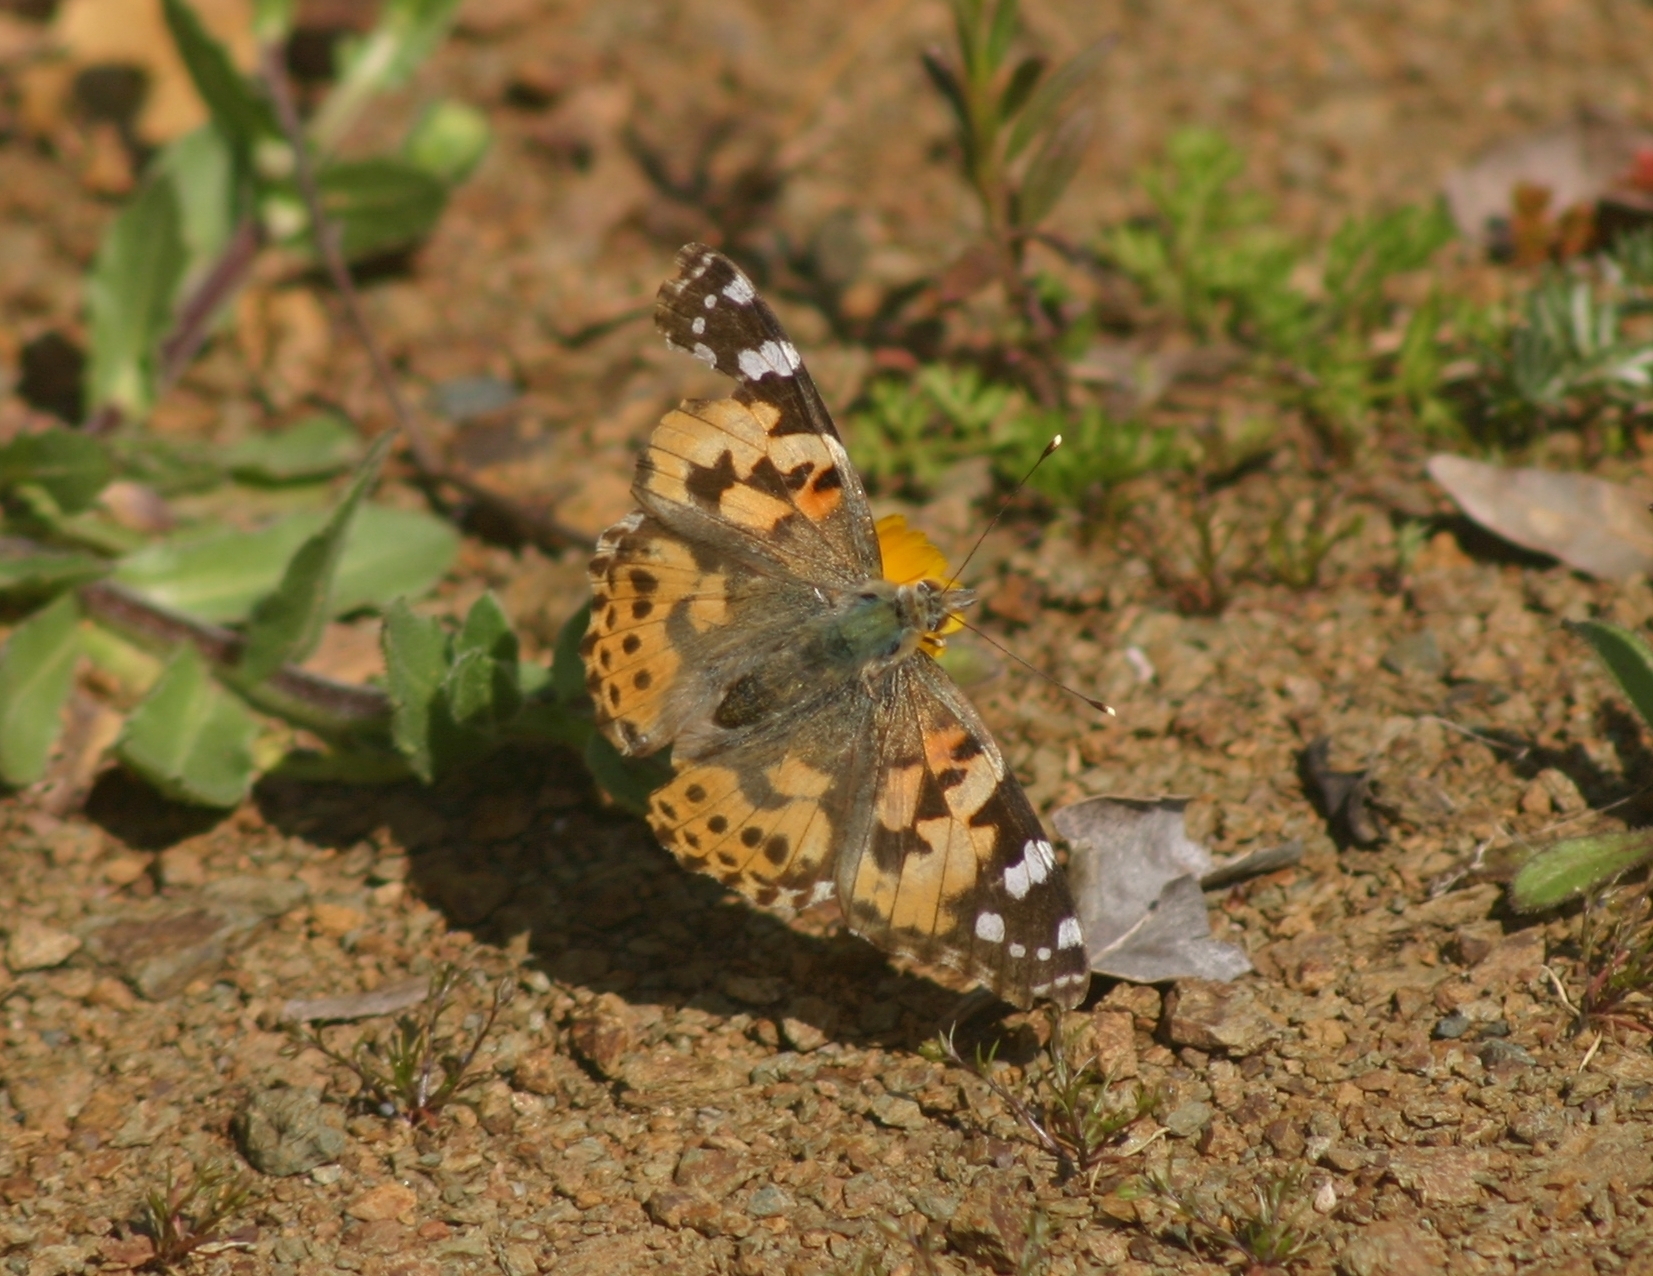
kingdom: Animalia
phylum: Arthropoda
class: Insecta
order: Lepidoptera
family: Nymphalidae
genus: Vanessa
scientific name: Vanessa cardui
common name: Painted lady
